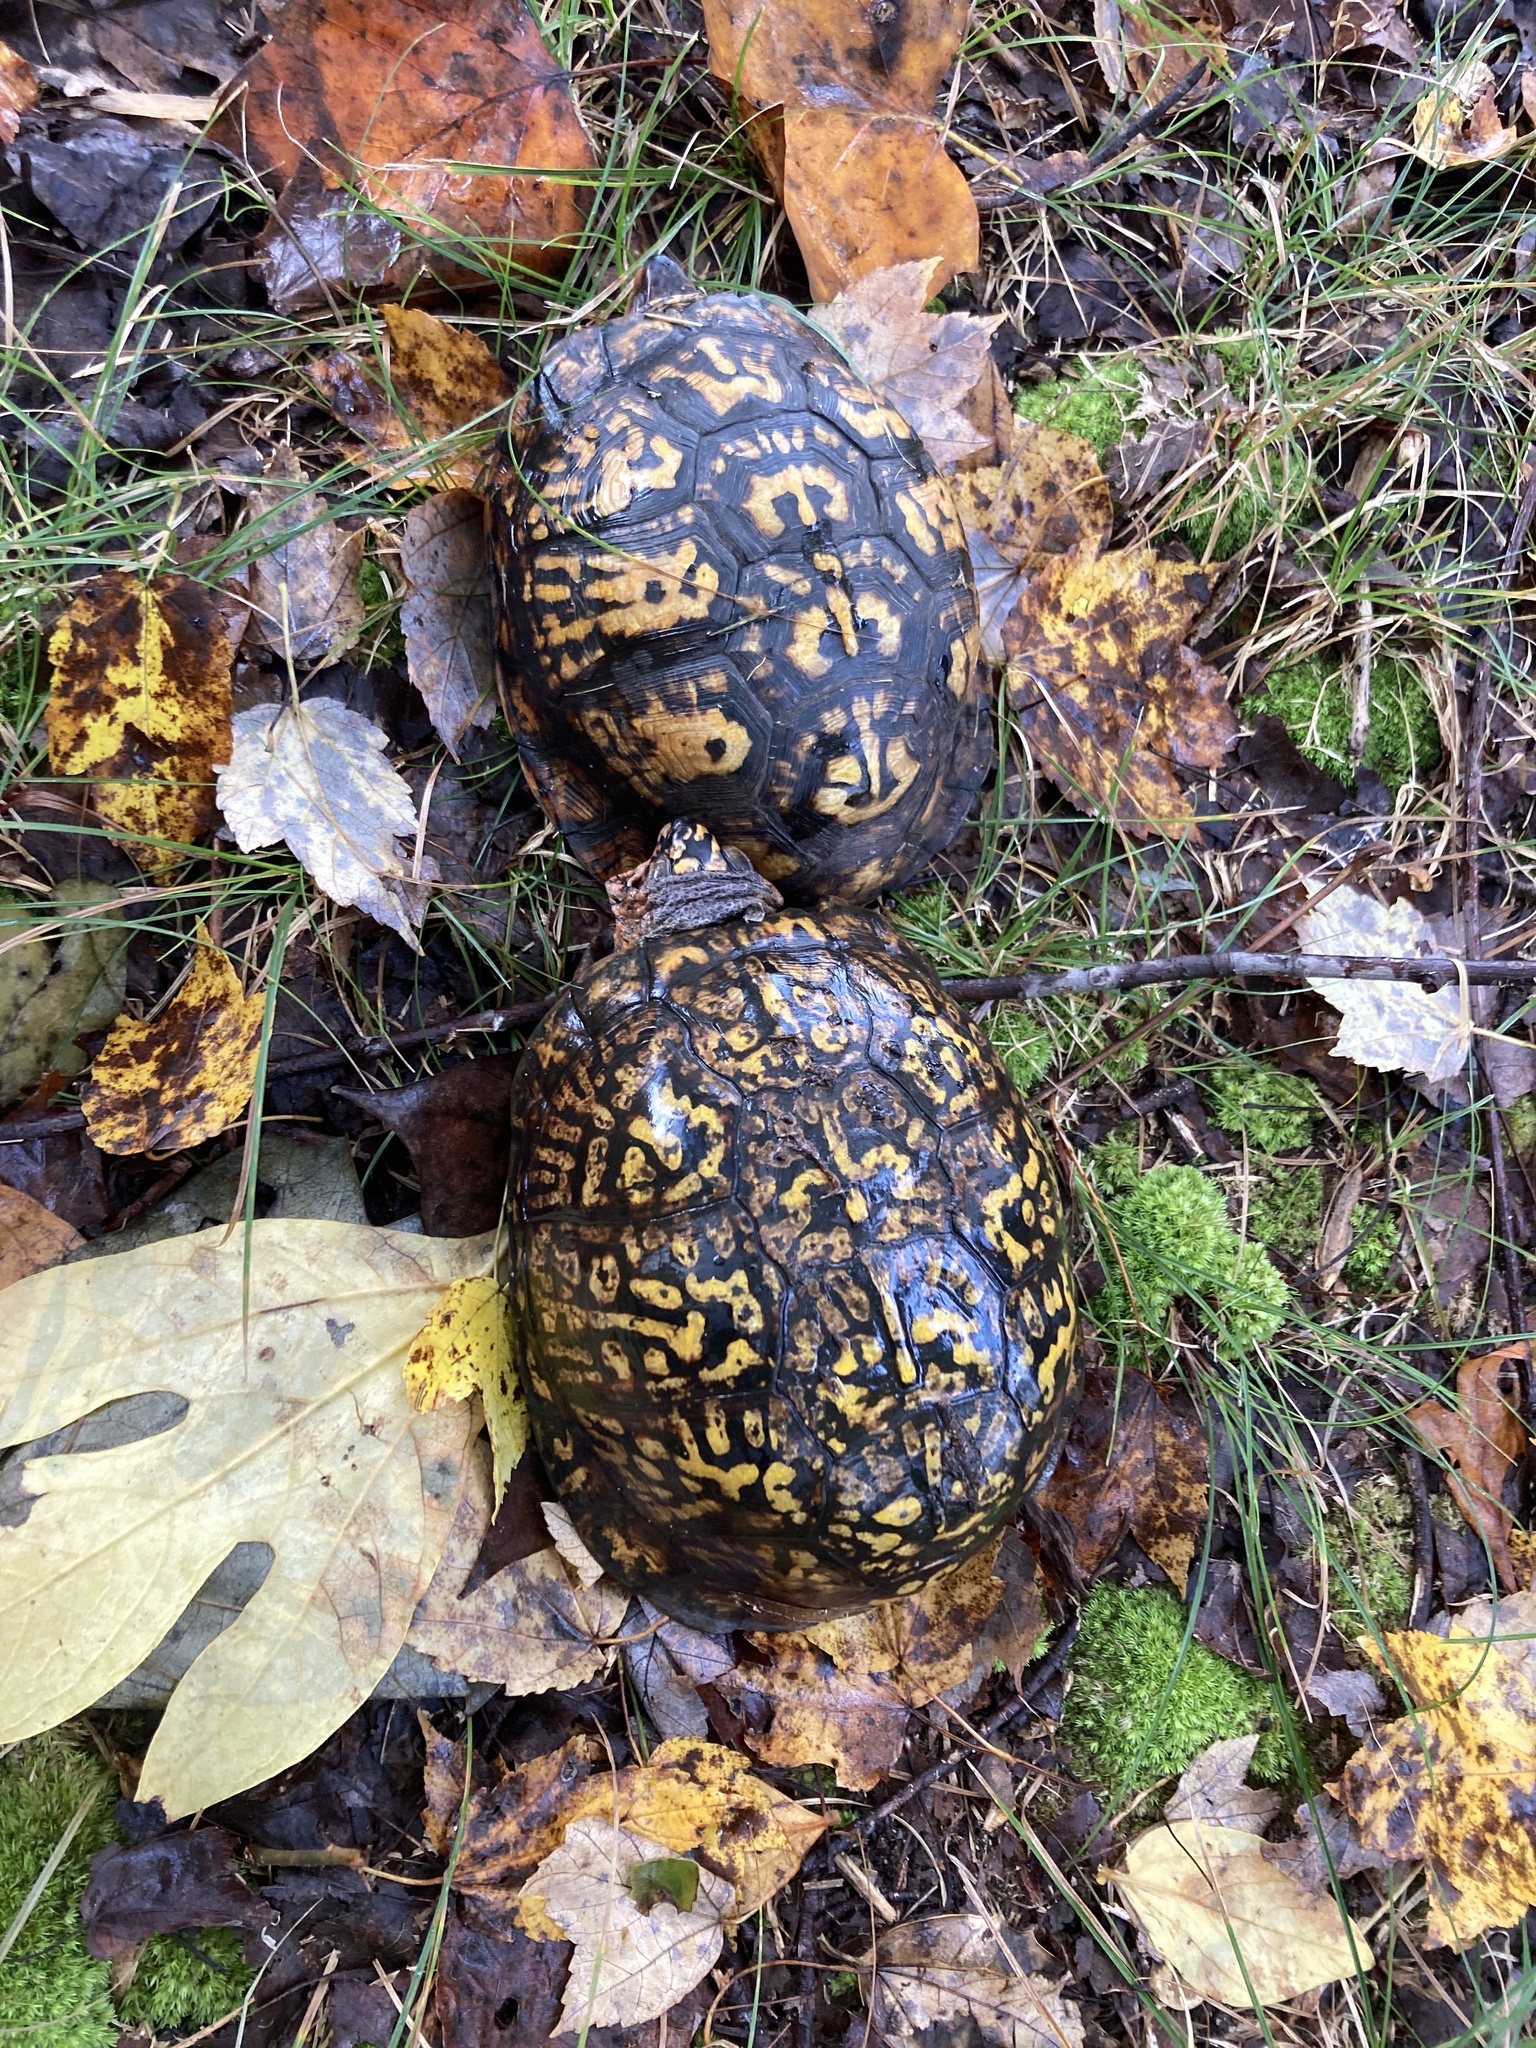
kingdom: Animalia
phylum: Chordata
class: Testudines
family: Emydidae
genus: Terrapene
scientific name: Terrapene carolina
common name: Common box turtle
